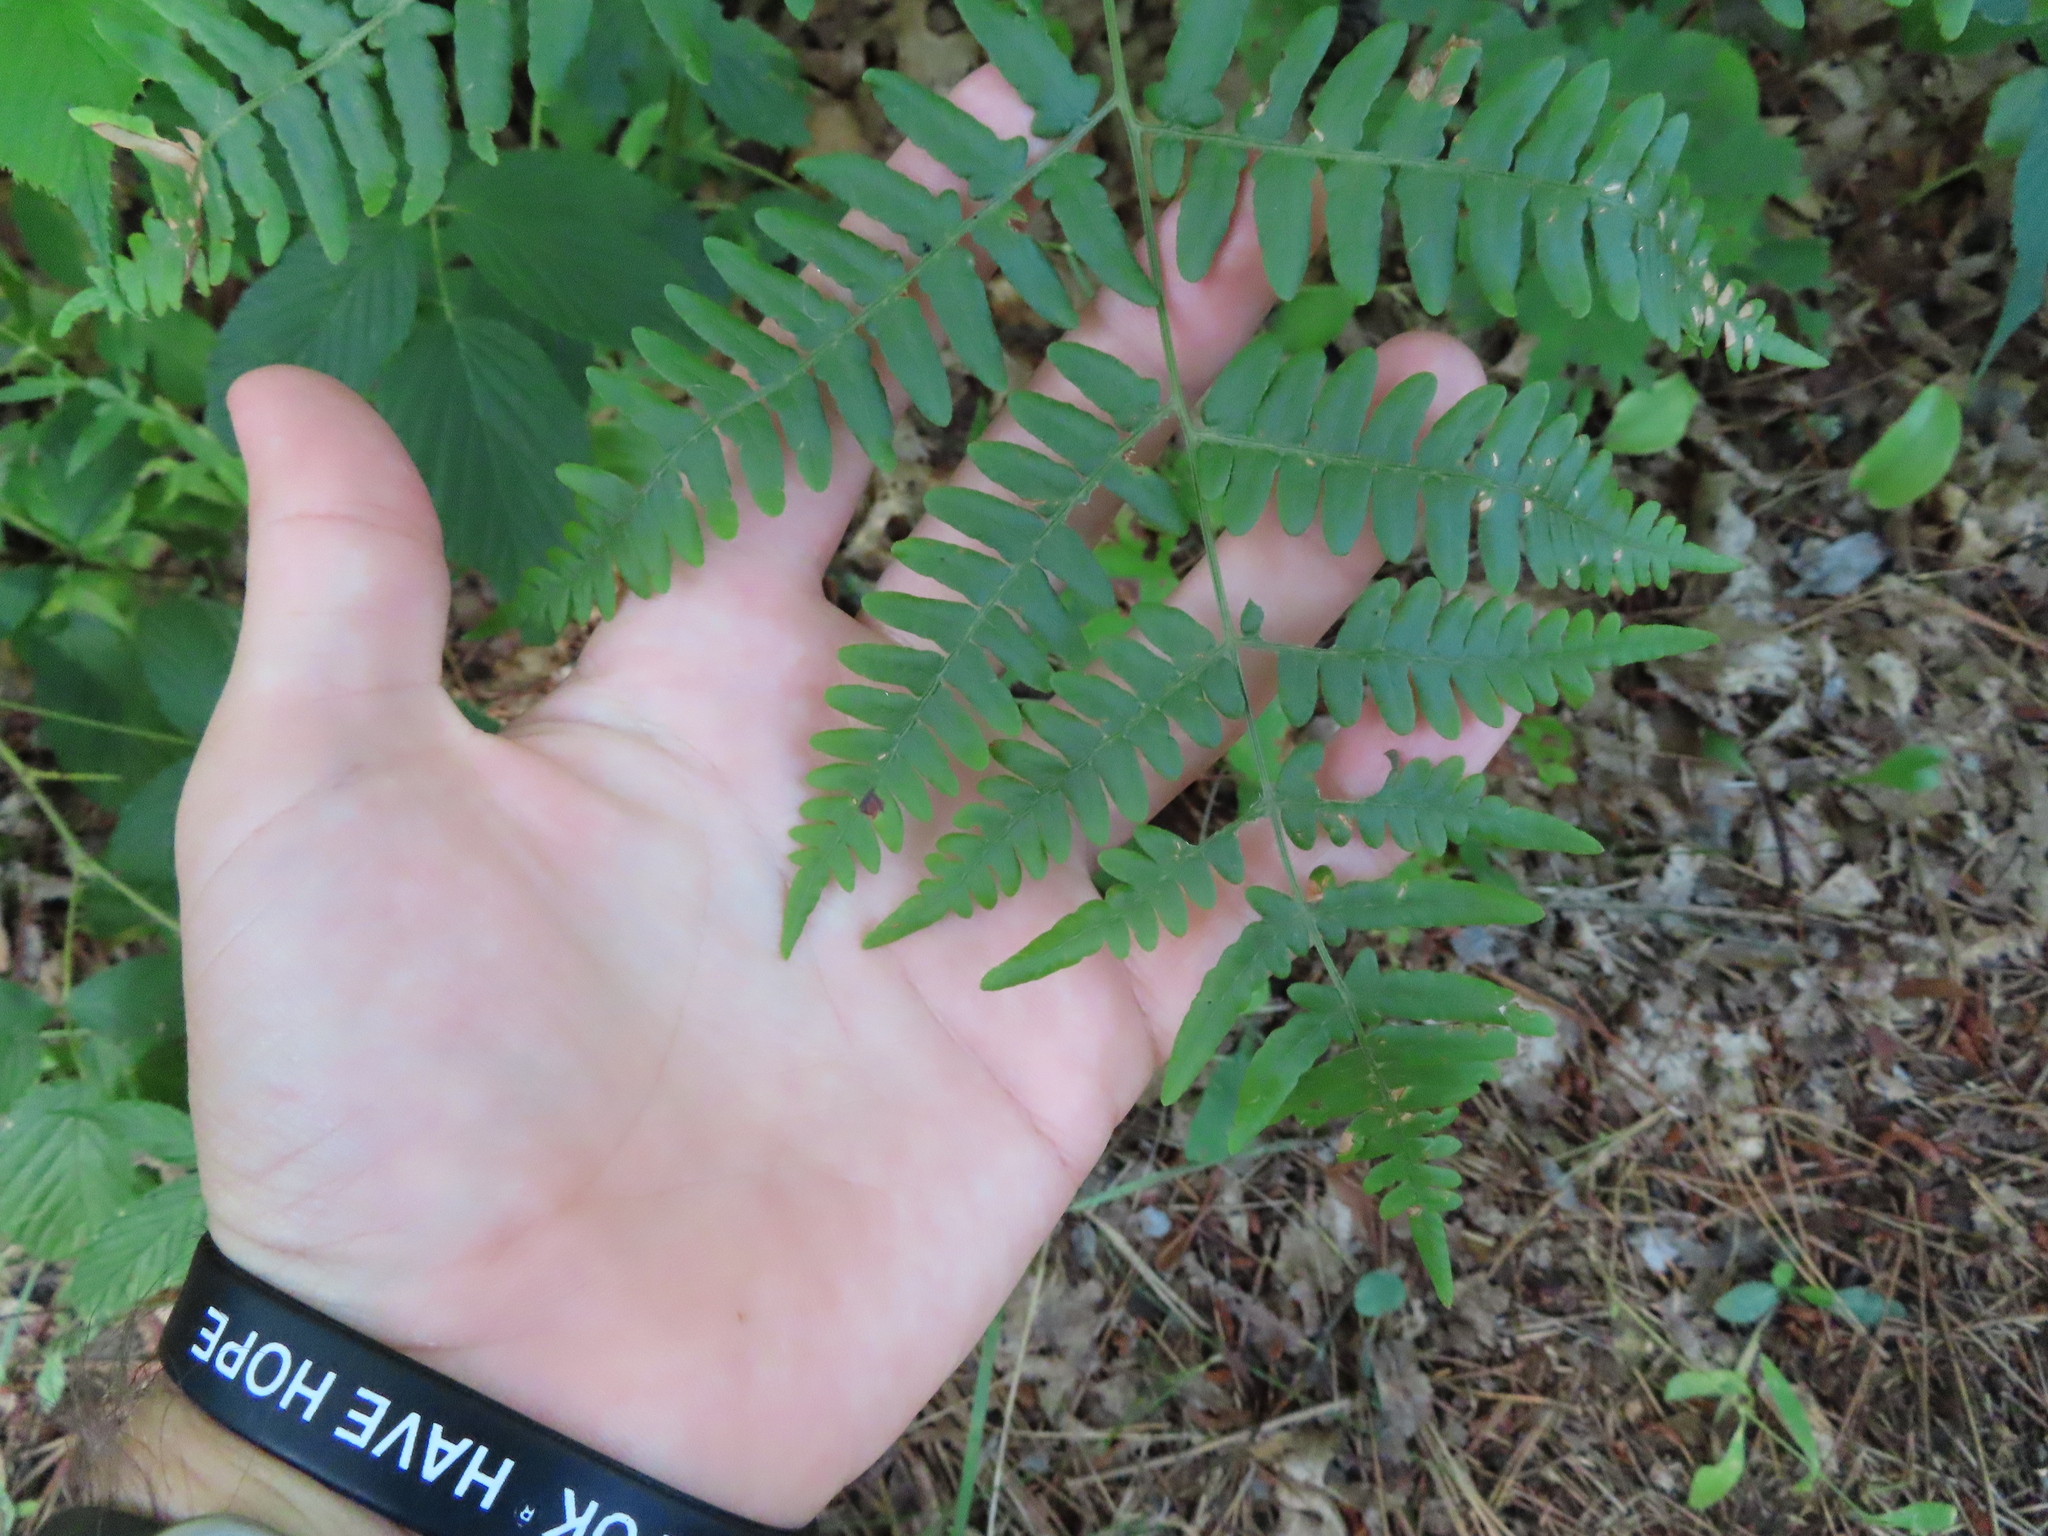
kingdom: Plantae
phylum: Tracheophyta
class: Polypodiopsida
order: Polypodiales
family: Dennstaedtiaceae
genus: Pteridium
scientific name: Pteridium aquilinum
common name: Bracken
